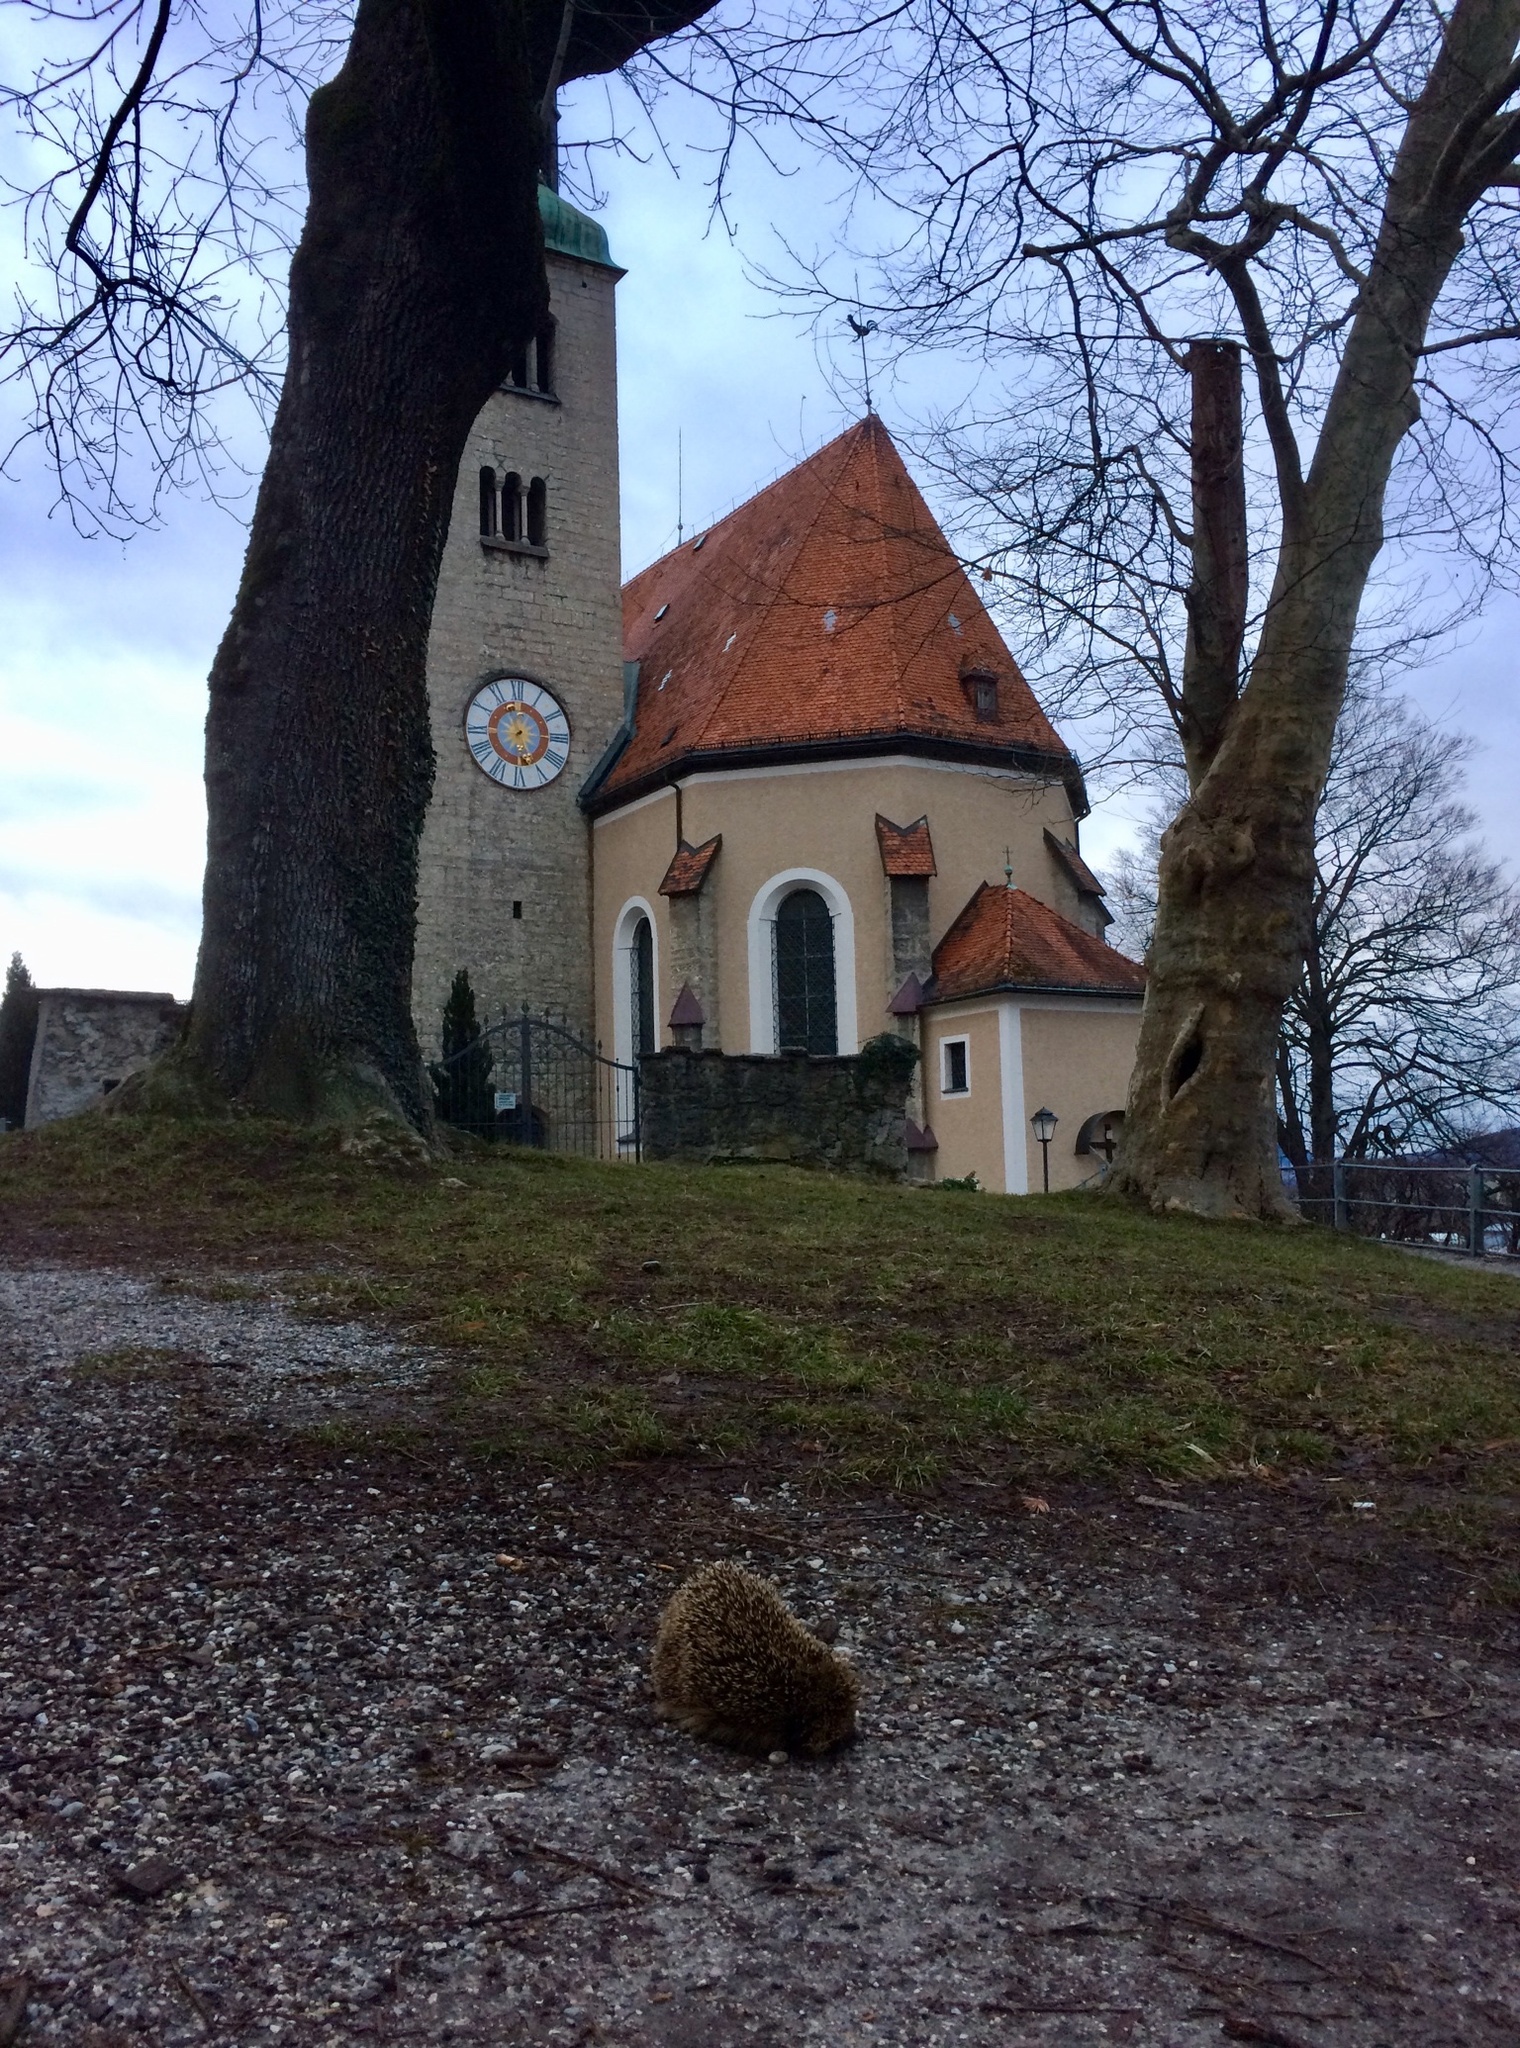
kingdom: Animalia
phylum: Chordata
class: Mammalia
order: Erinaceomorpha
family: Erinaceidae
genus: Erinaceus
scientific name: Erinaceus europaeus
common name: West european hedgehog
